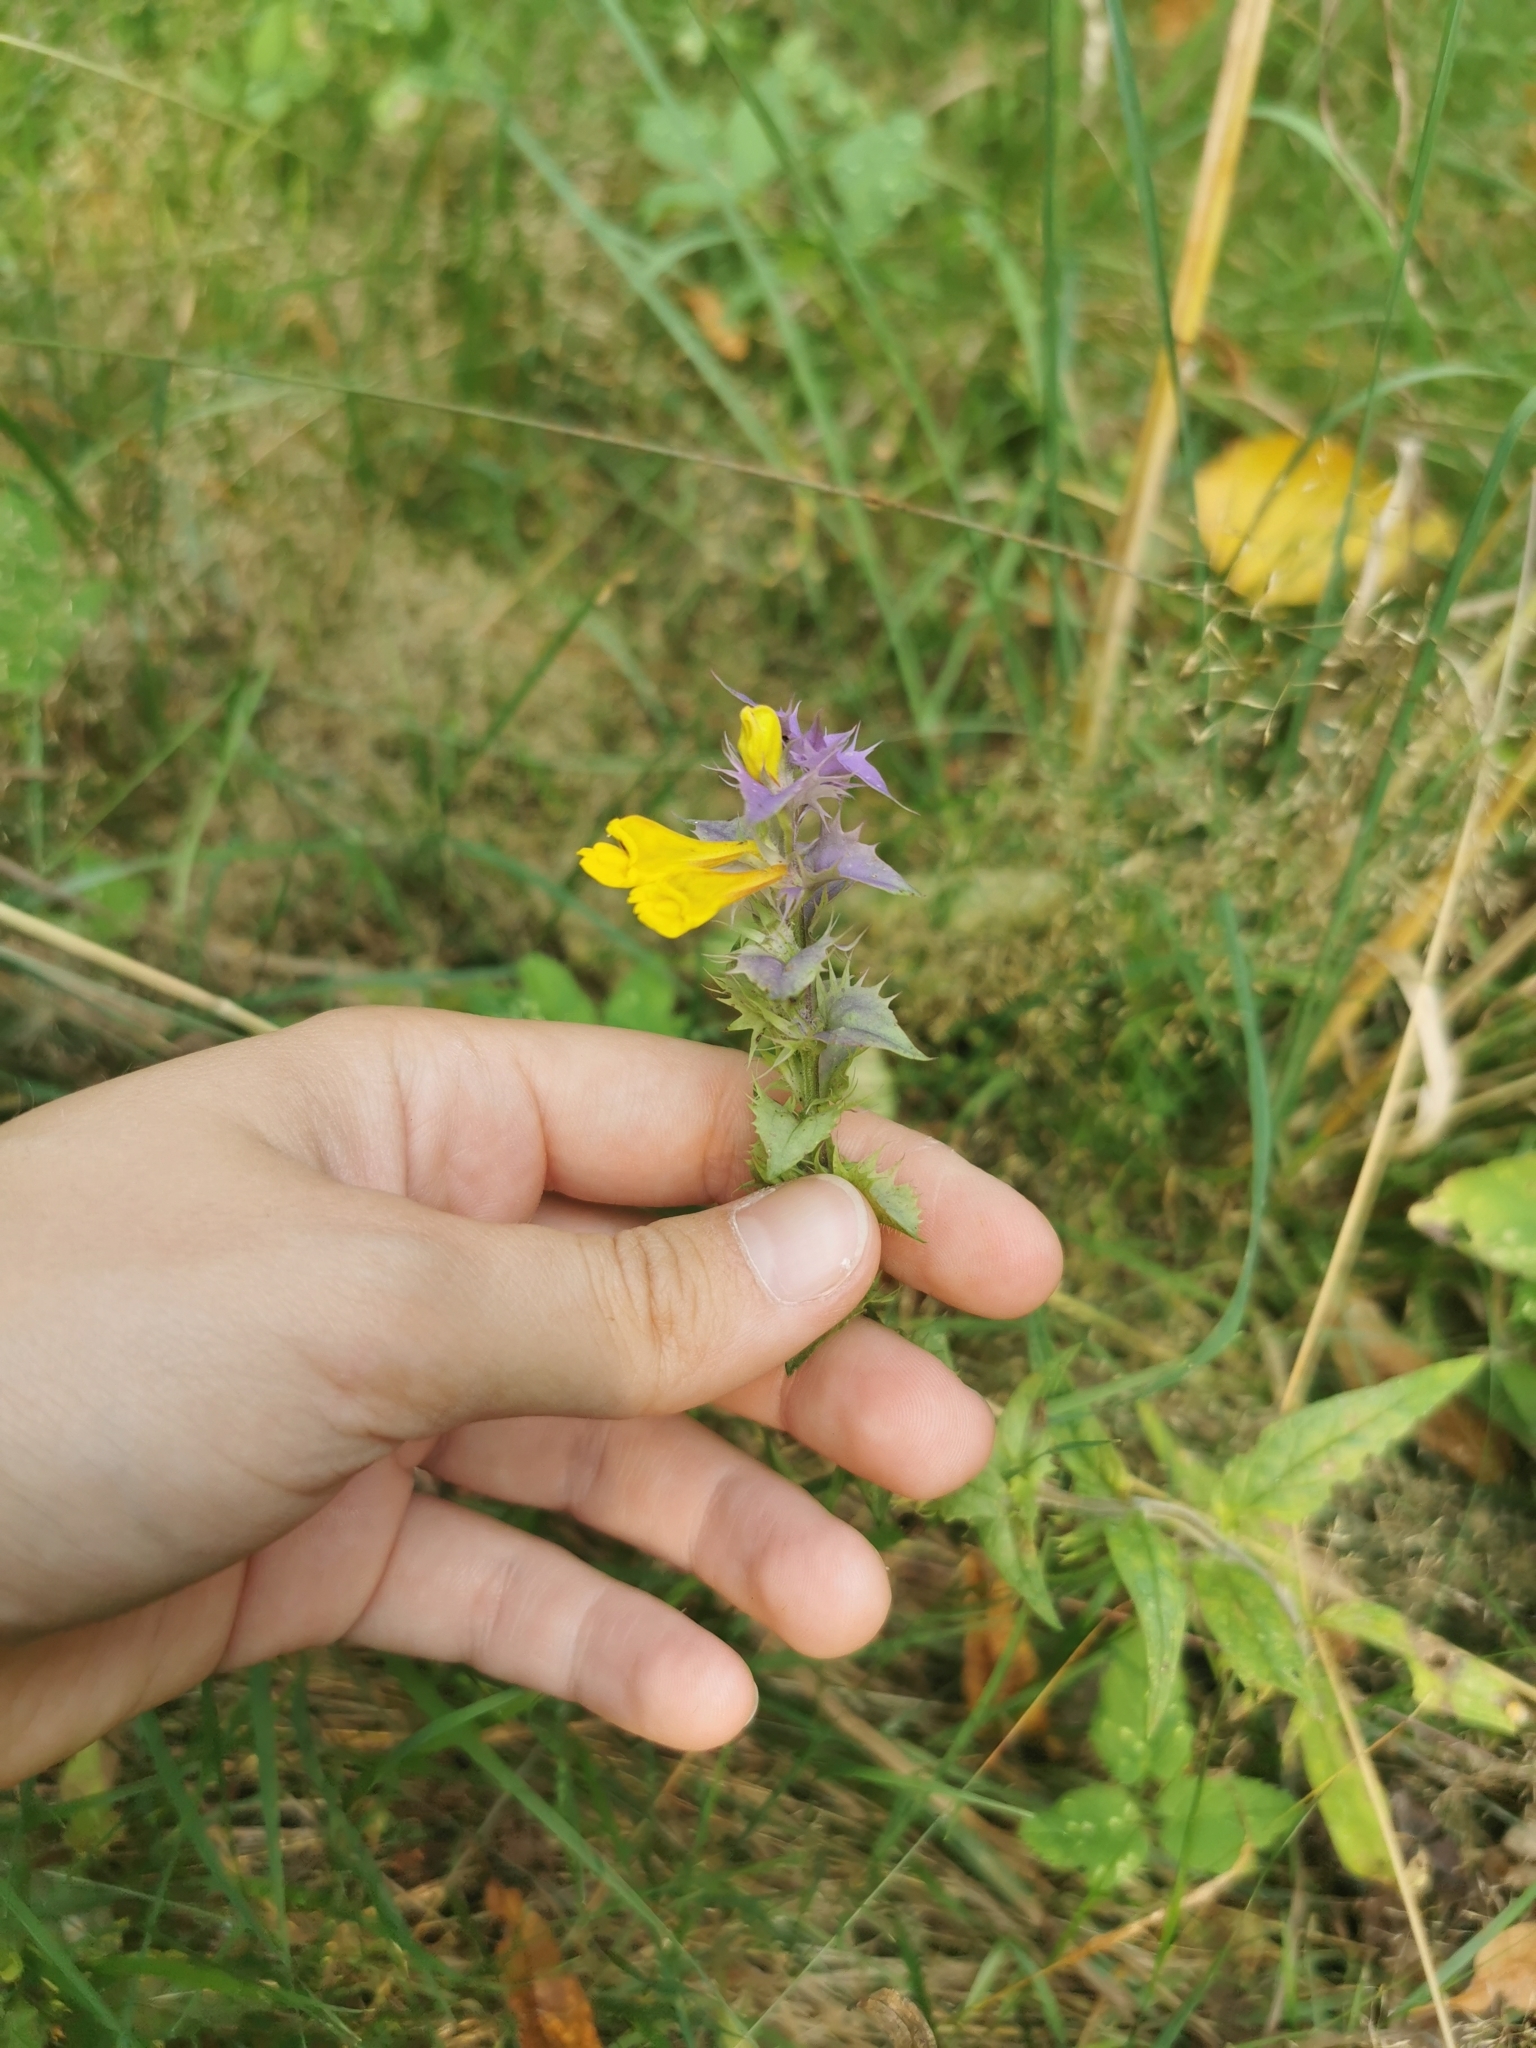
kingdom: Plantae
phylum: Tracheophyta
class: Magnoliopsida
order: Lamiales
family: Orobanchaceae
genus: Melampyrum
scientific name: Melampyrum nemorosum
